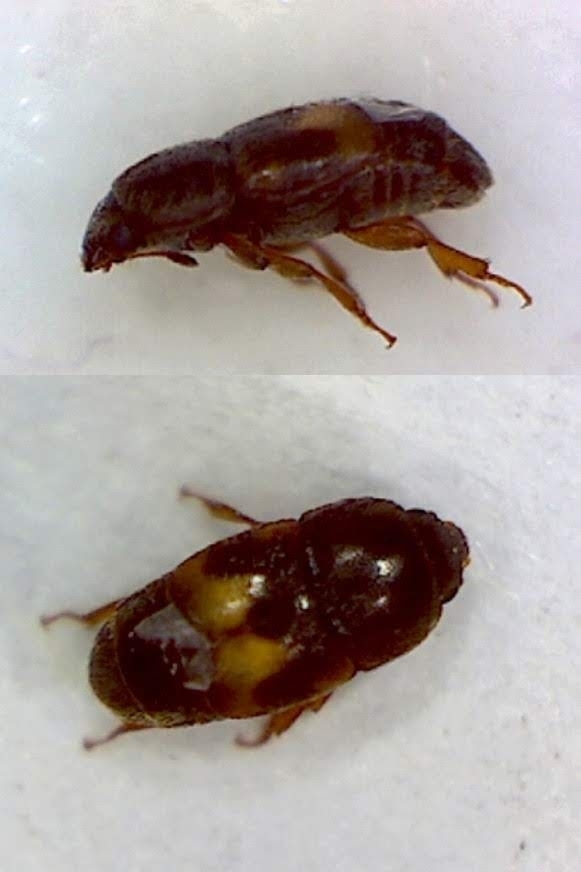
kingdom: Animalia
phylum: Arthropoda
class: Insecta
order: Coleoptera
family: Nitidulidae
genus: Carpophilus
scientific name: Carpophilus hemipterus
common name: Dried fruit beetle
